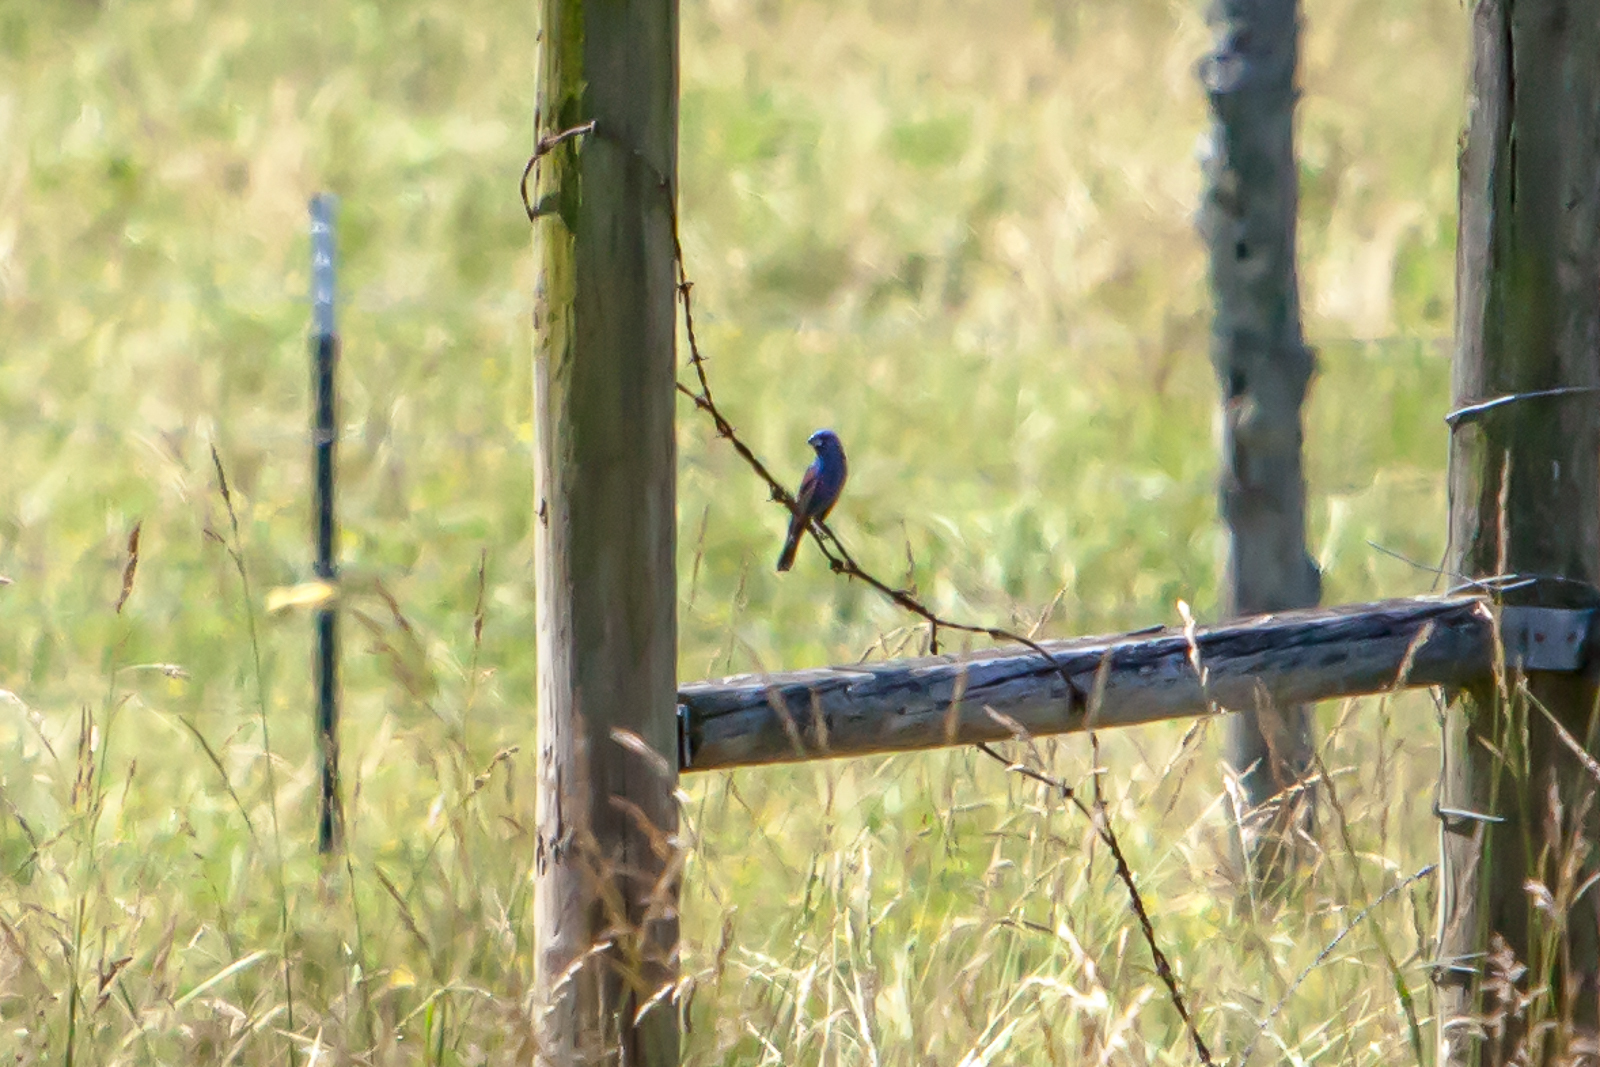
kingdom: Animalia
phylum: Chordata
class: Aves
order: Passeriformes
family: Cardinalidae
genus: Passerina
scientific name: Passerina caerulea
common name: Blue grosbeak
